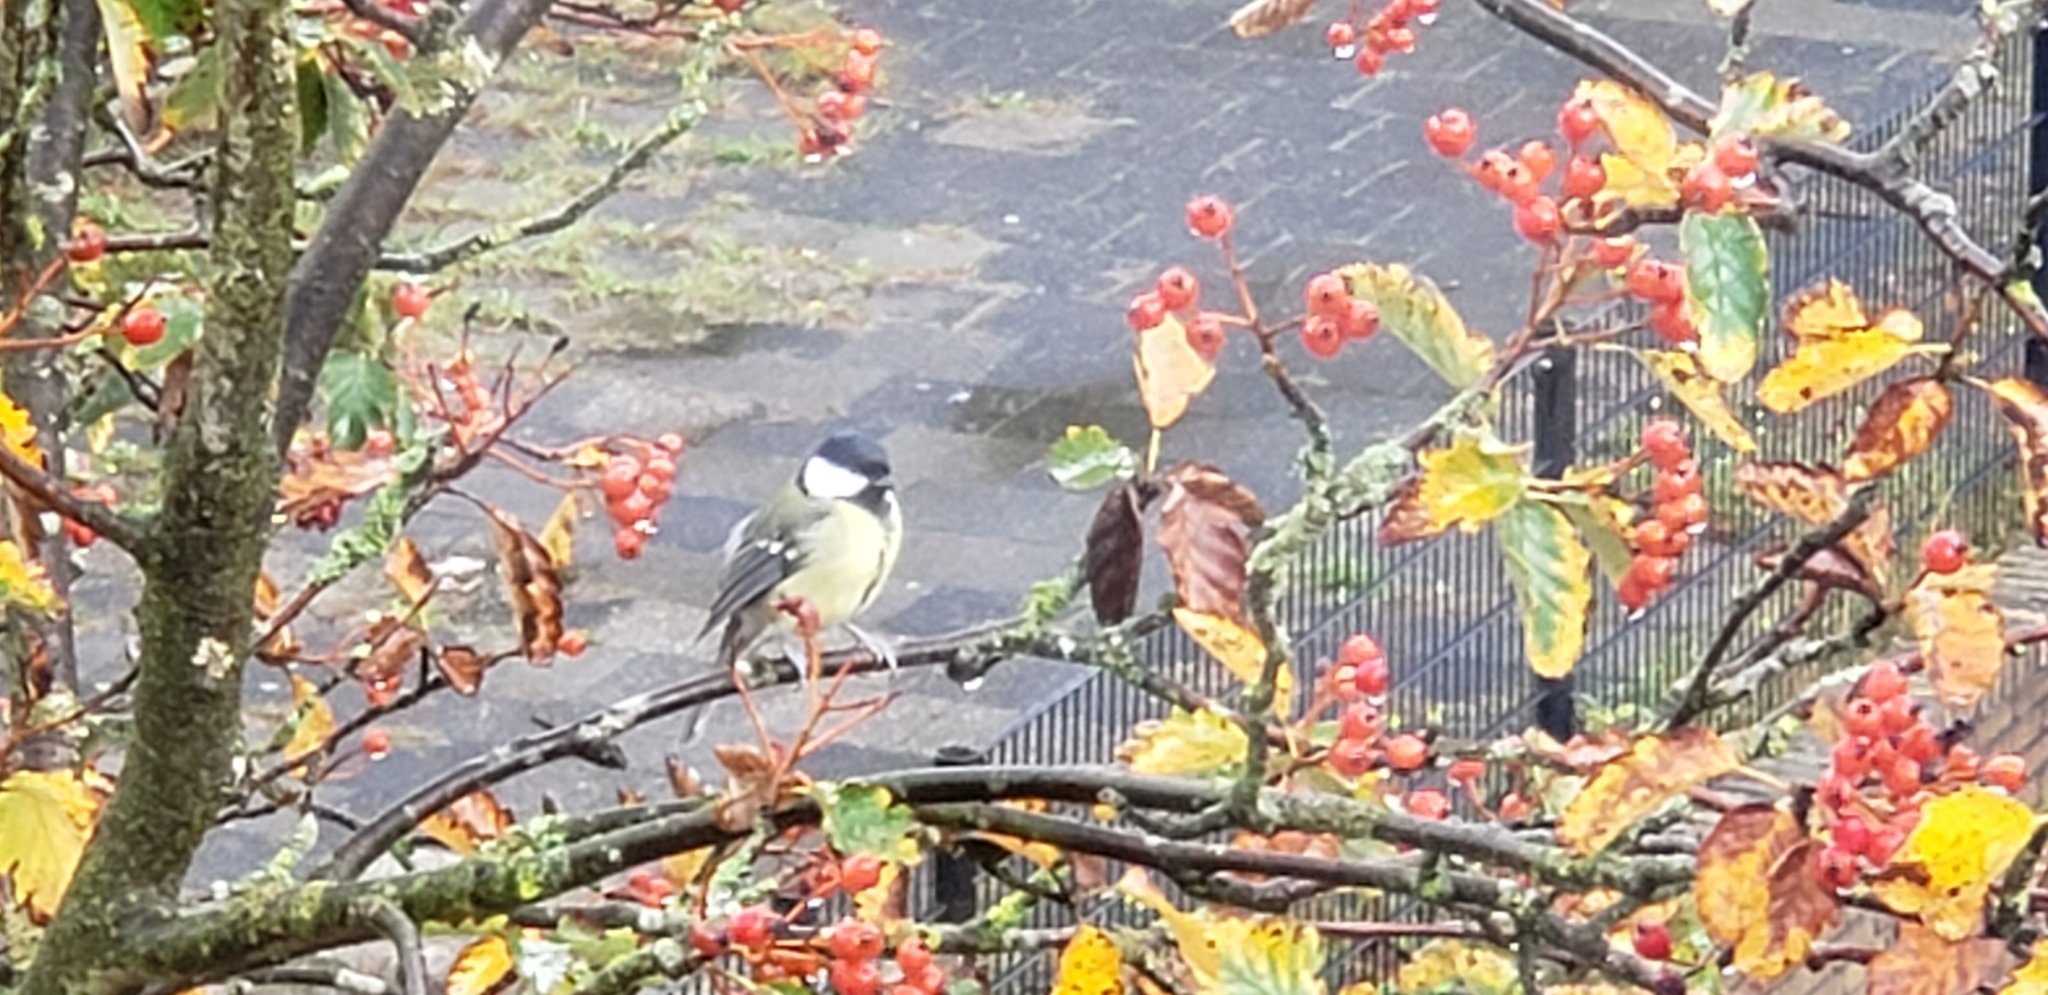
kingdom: Animalia
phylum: Chordata
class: Aves
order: Passeriformes
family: Paridae
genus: Parus
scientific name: Parus major
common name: Great tit
